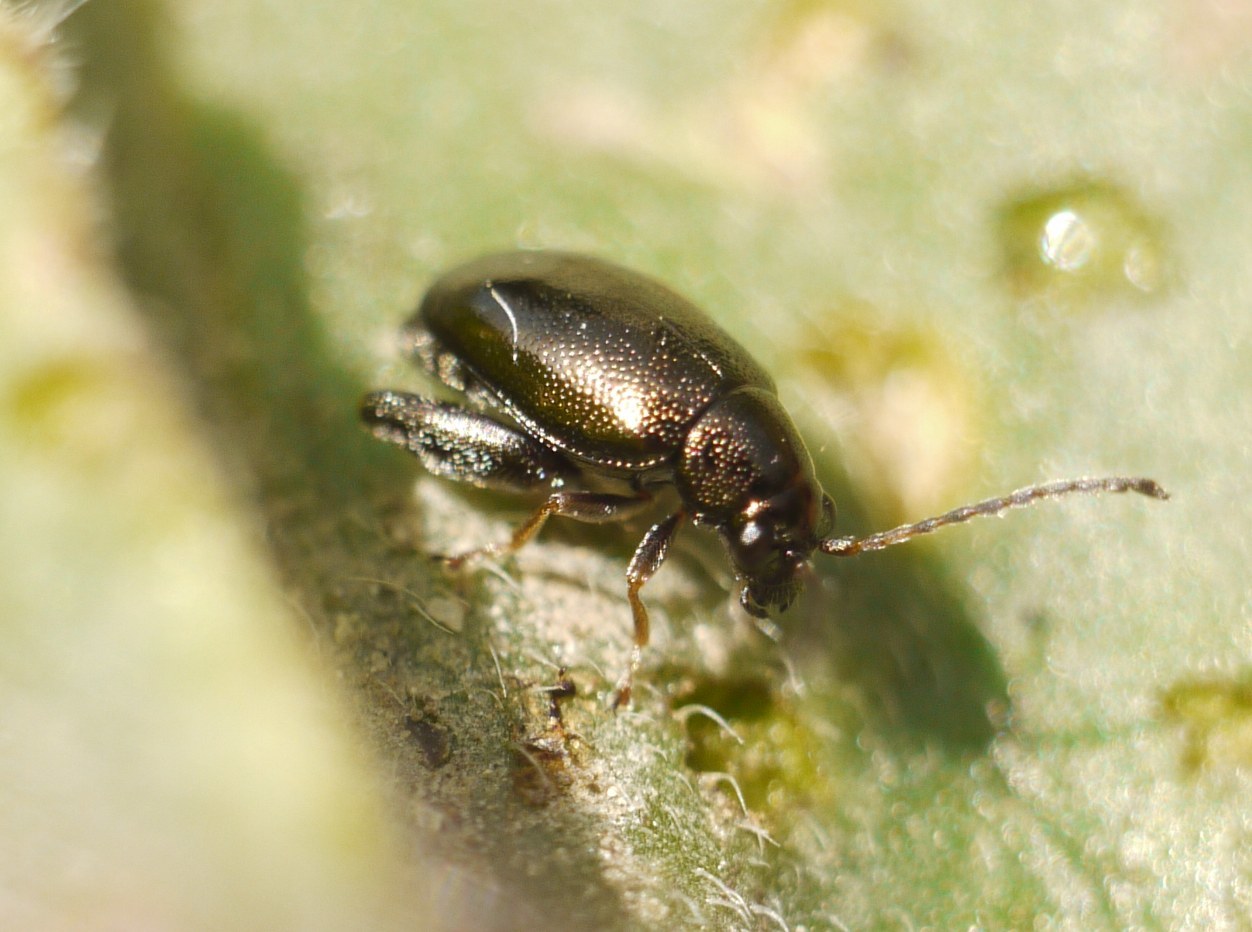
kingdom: Animalia
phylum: Arthropoda
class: Insecta
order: Coleoptera
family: Chrysomelidae
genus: Longitarsus
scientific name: Longitarsus echii
